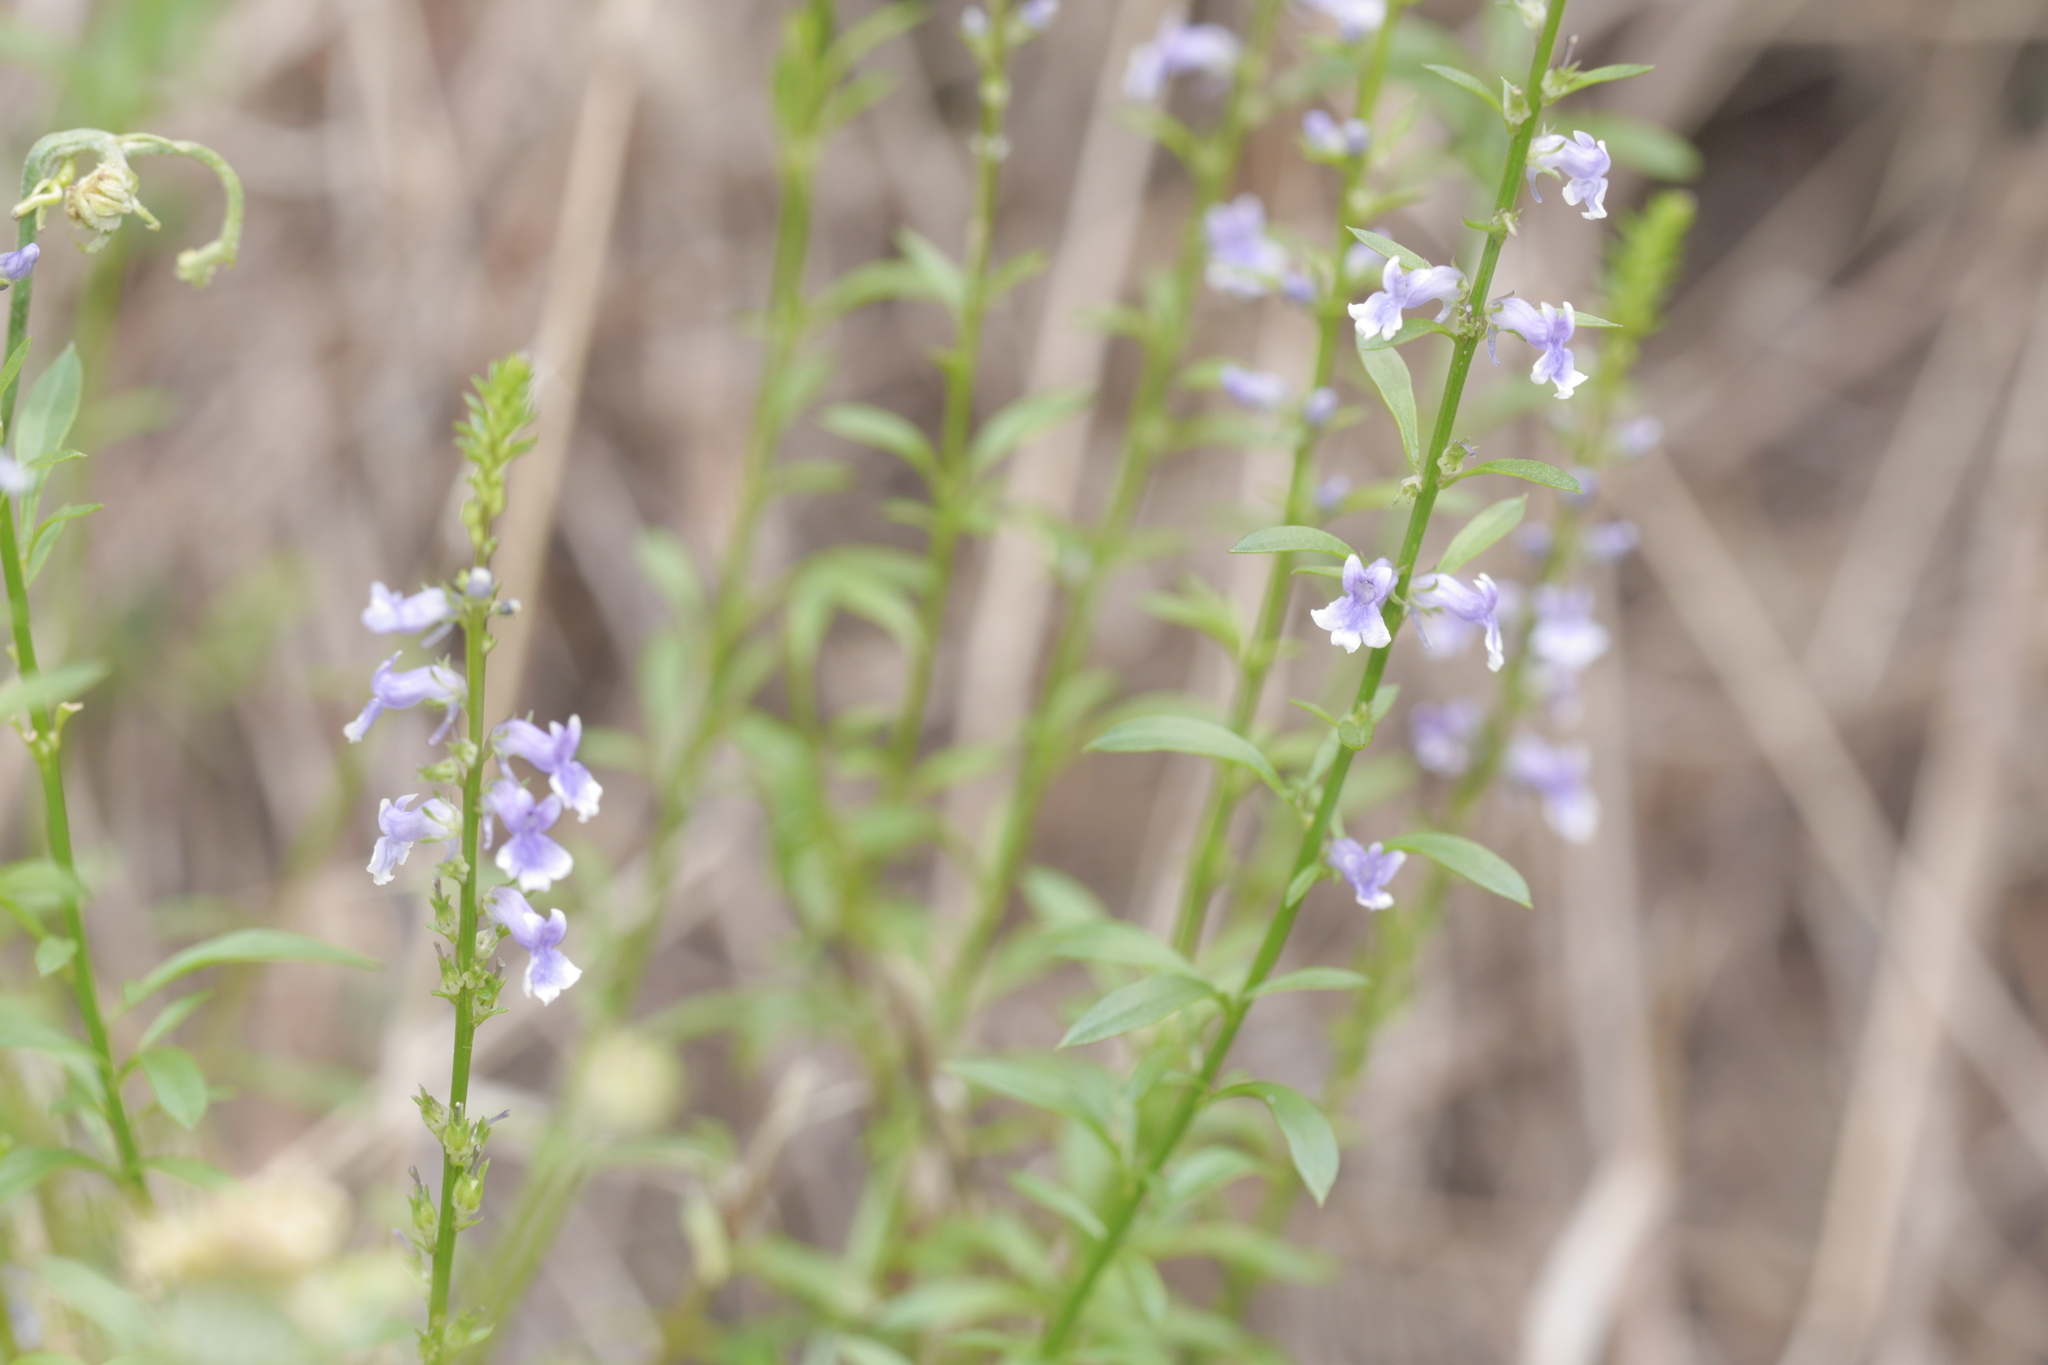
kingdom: Plantae
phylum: Tracheophyta
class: Magnoliopsida
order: Lamiales
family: Plantaginaceae
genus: Anarrhinum
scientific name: Anarrhinum bellidifolium
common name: Daisy-leaved toadflax
